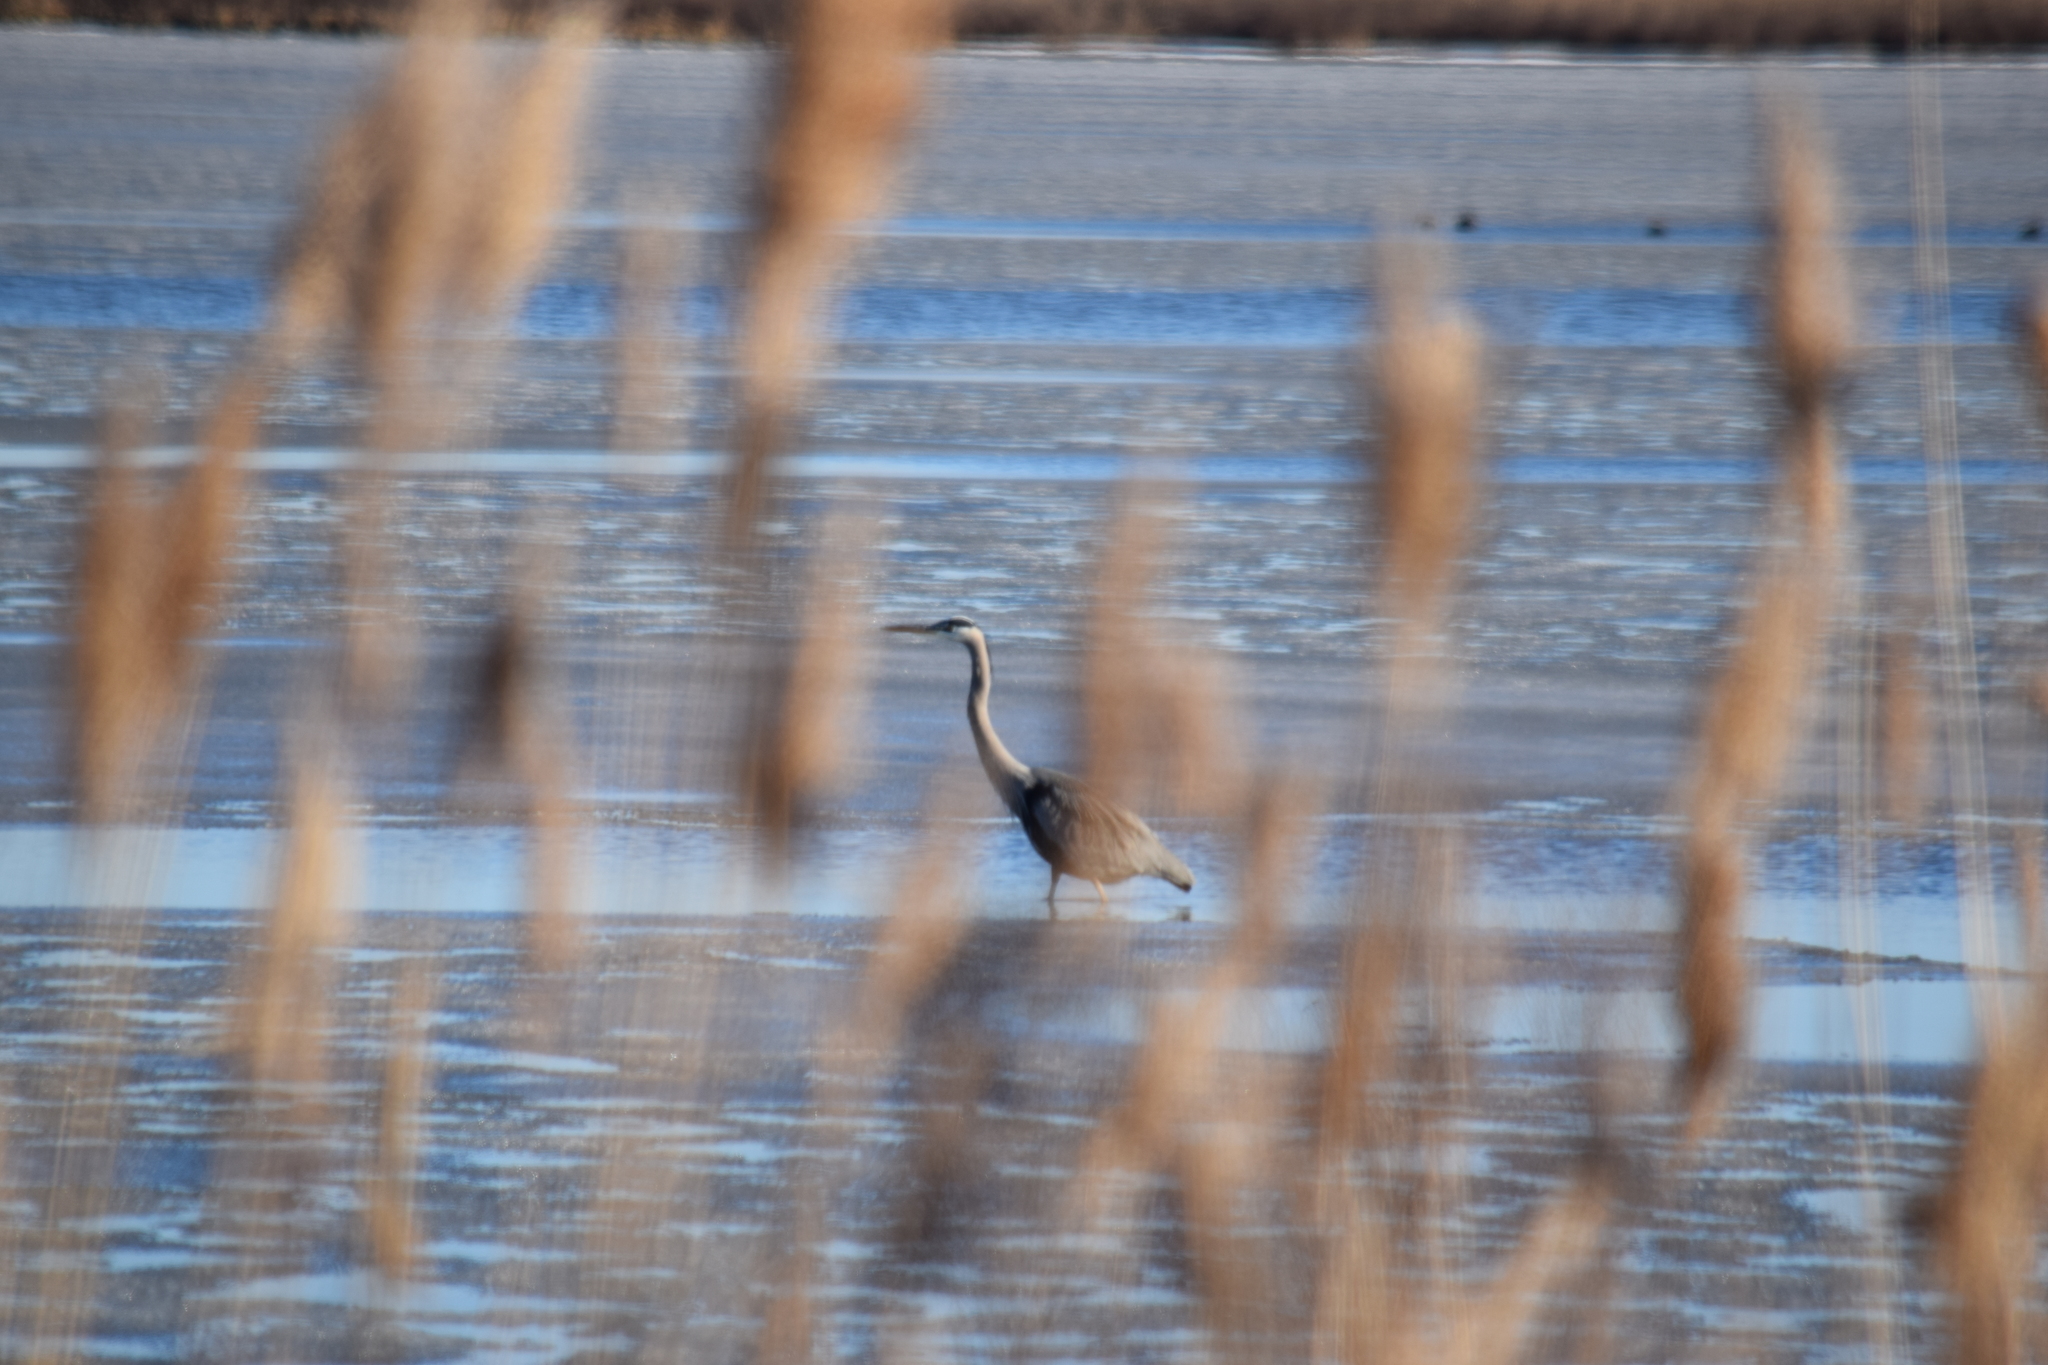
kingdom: Animalia
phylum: Chordata
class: Aves
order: Pelecaniformes
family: Ardeidae
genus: Ardea
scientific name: Ardea herodias
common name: Great blue heron
